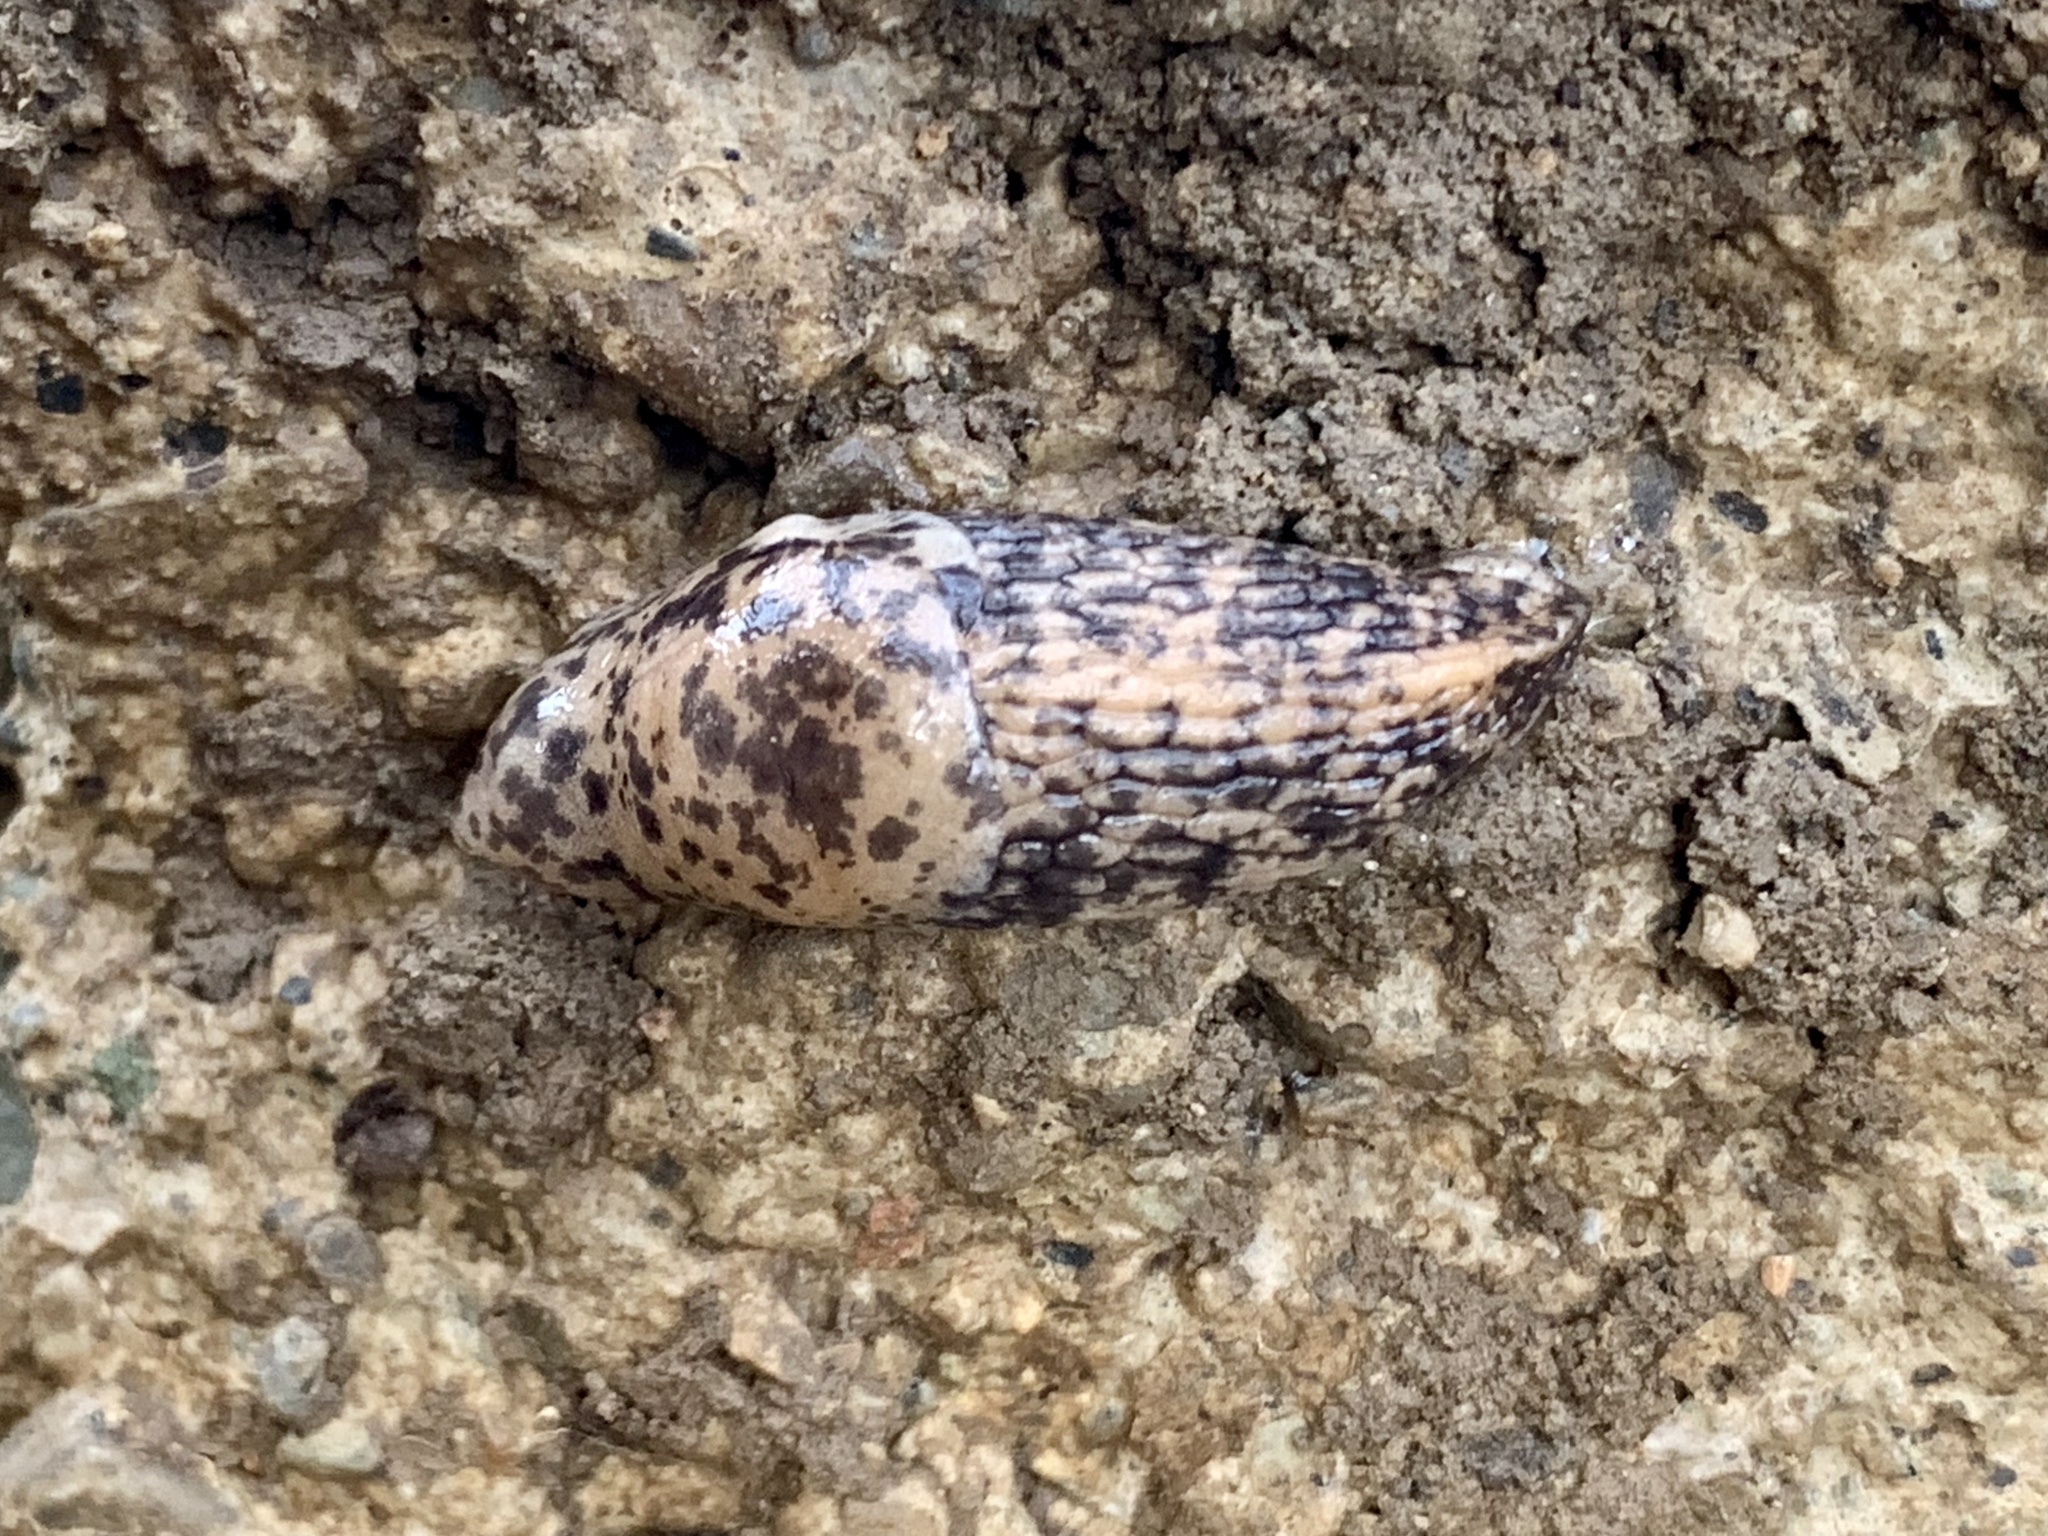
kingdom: Animalia
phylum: Mollusca
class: Gastropoda
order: Stylommatophora
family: Agriolimacidae
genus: Deroceras
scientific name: Deroceras reticulatum
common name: Gray field slug
